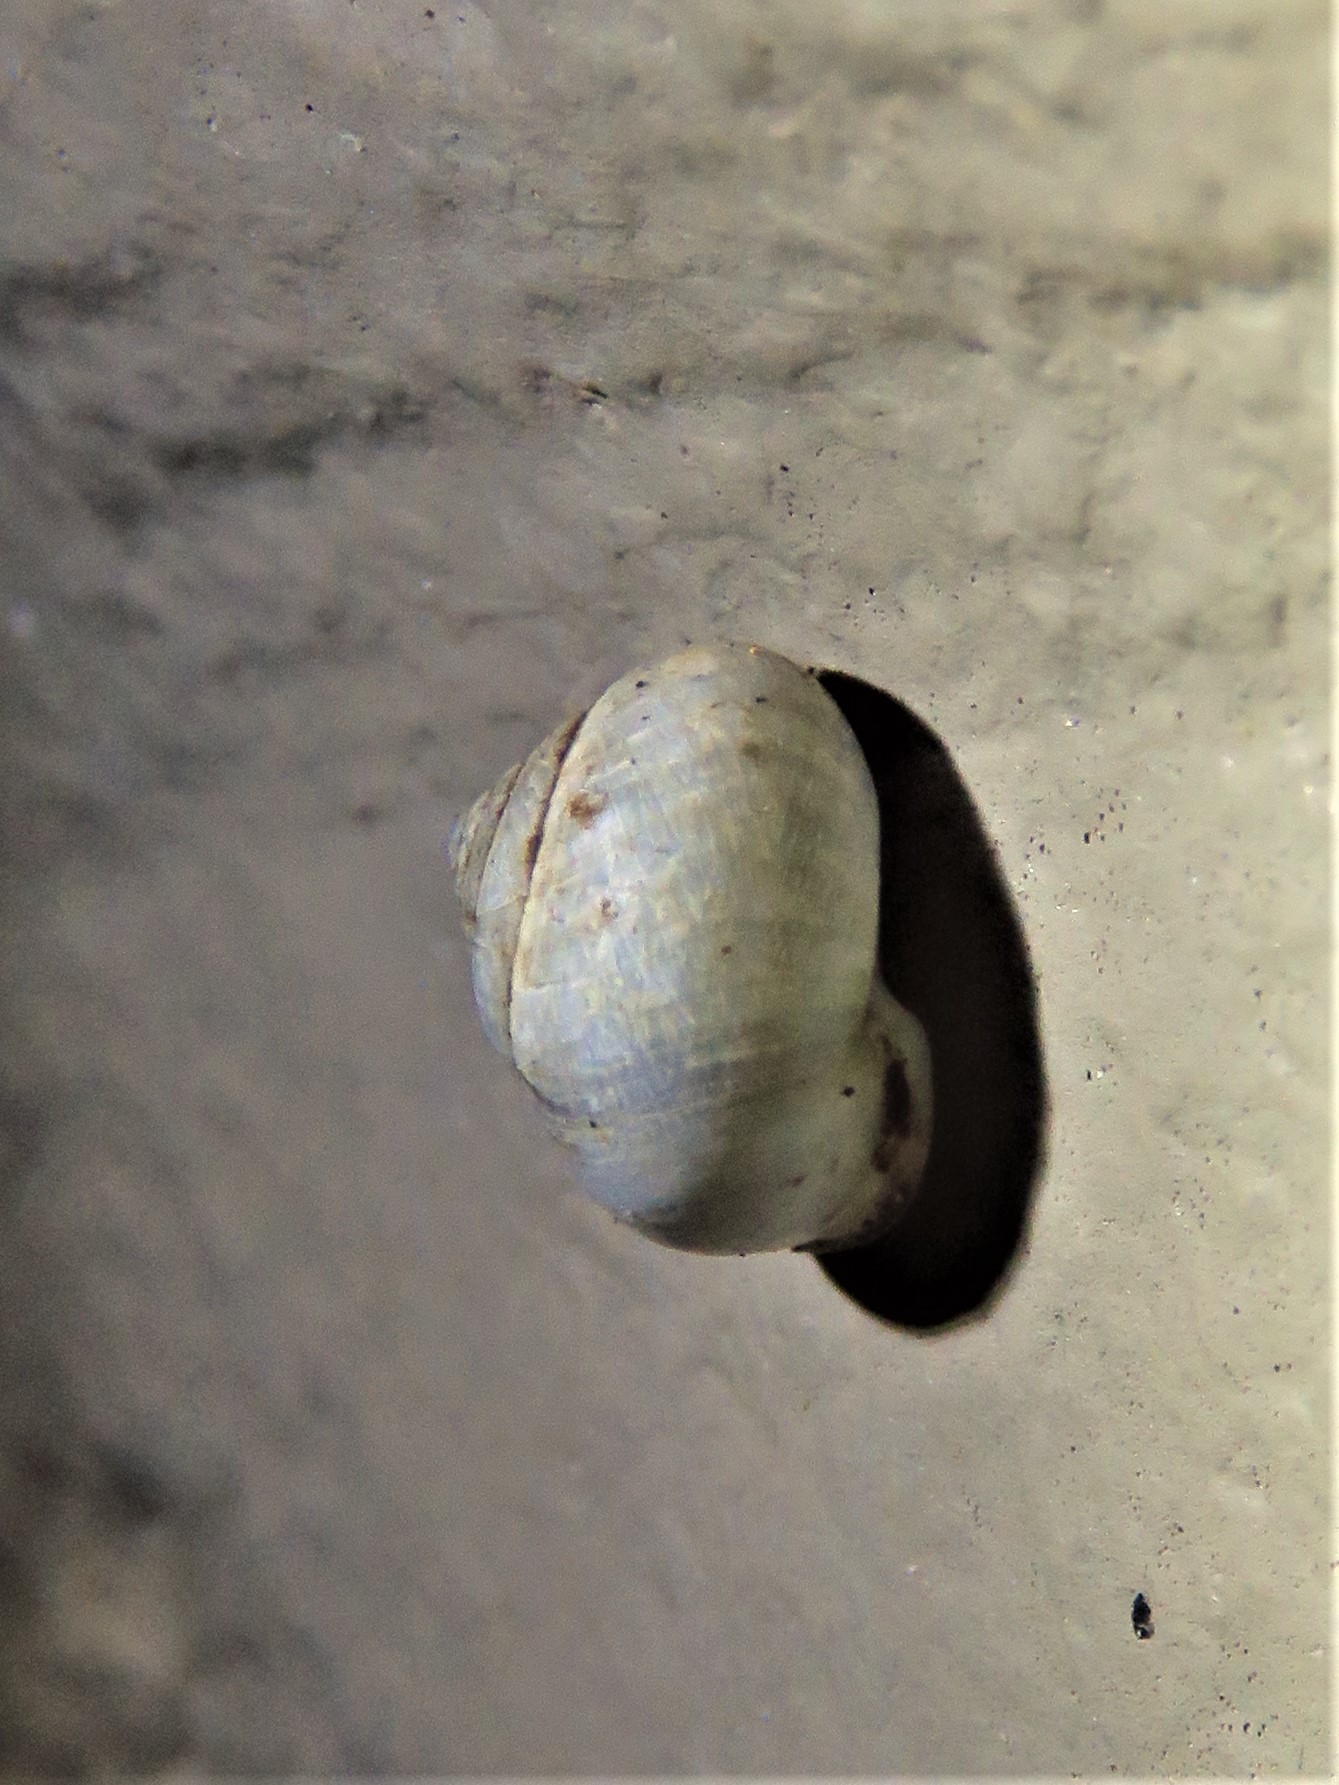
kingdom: Animalia
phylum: Mollusca
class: Gastropoda
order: Cycloneritida
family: Helicinidae
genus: Helicina
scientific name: Helicina orbiculata
